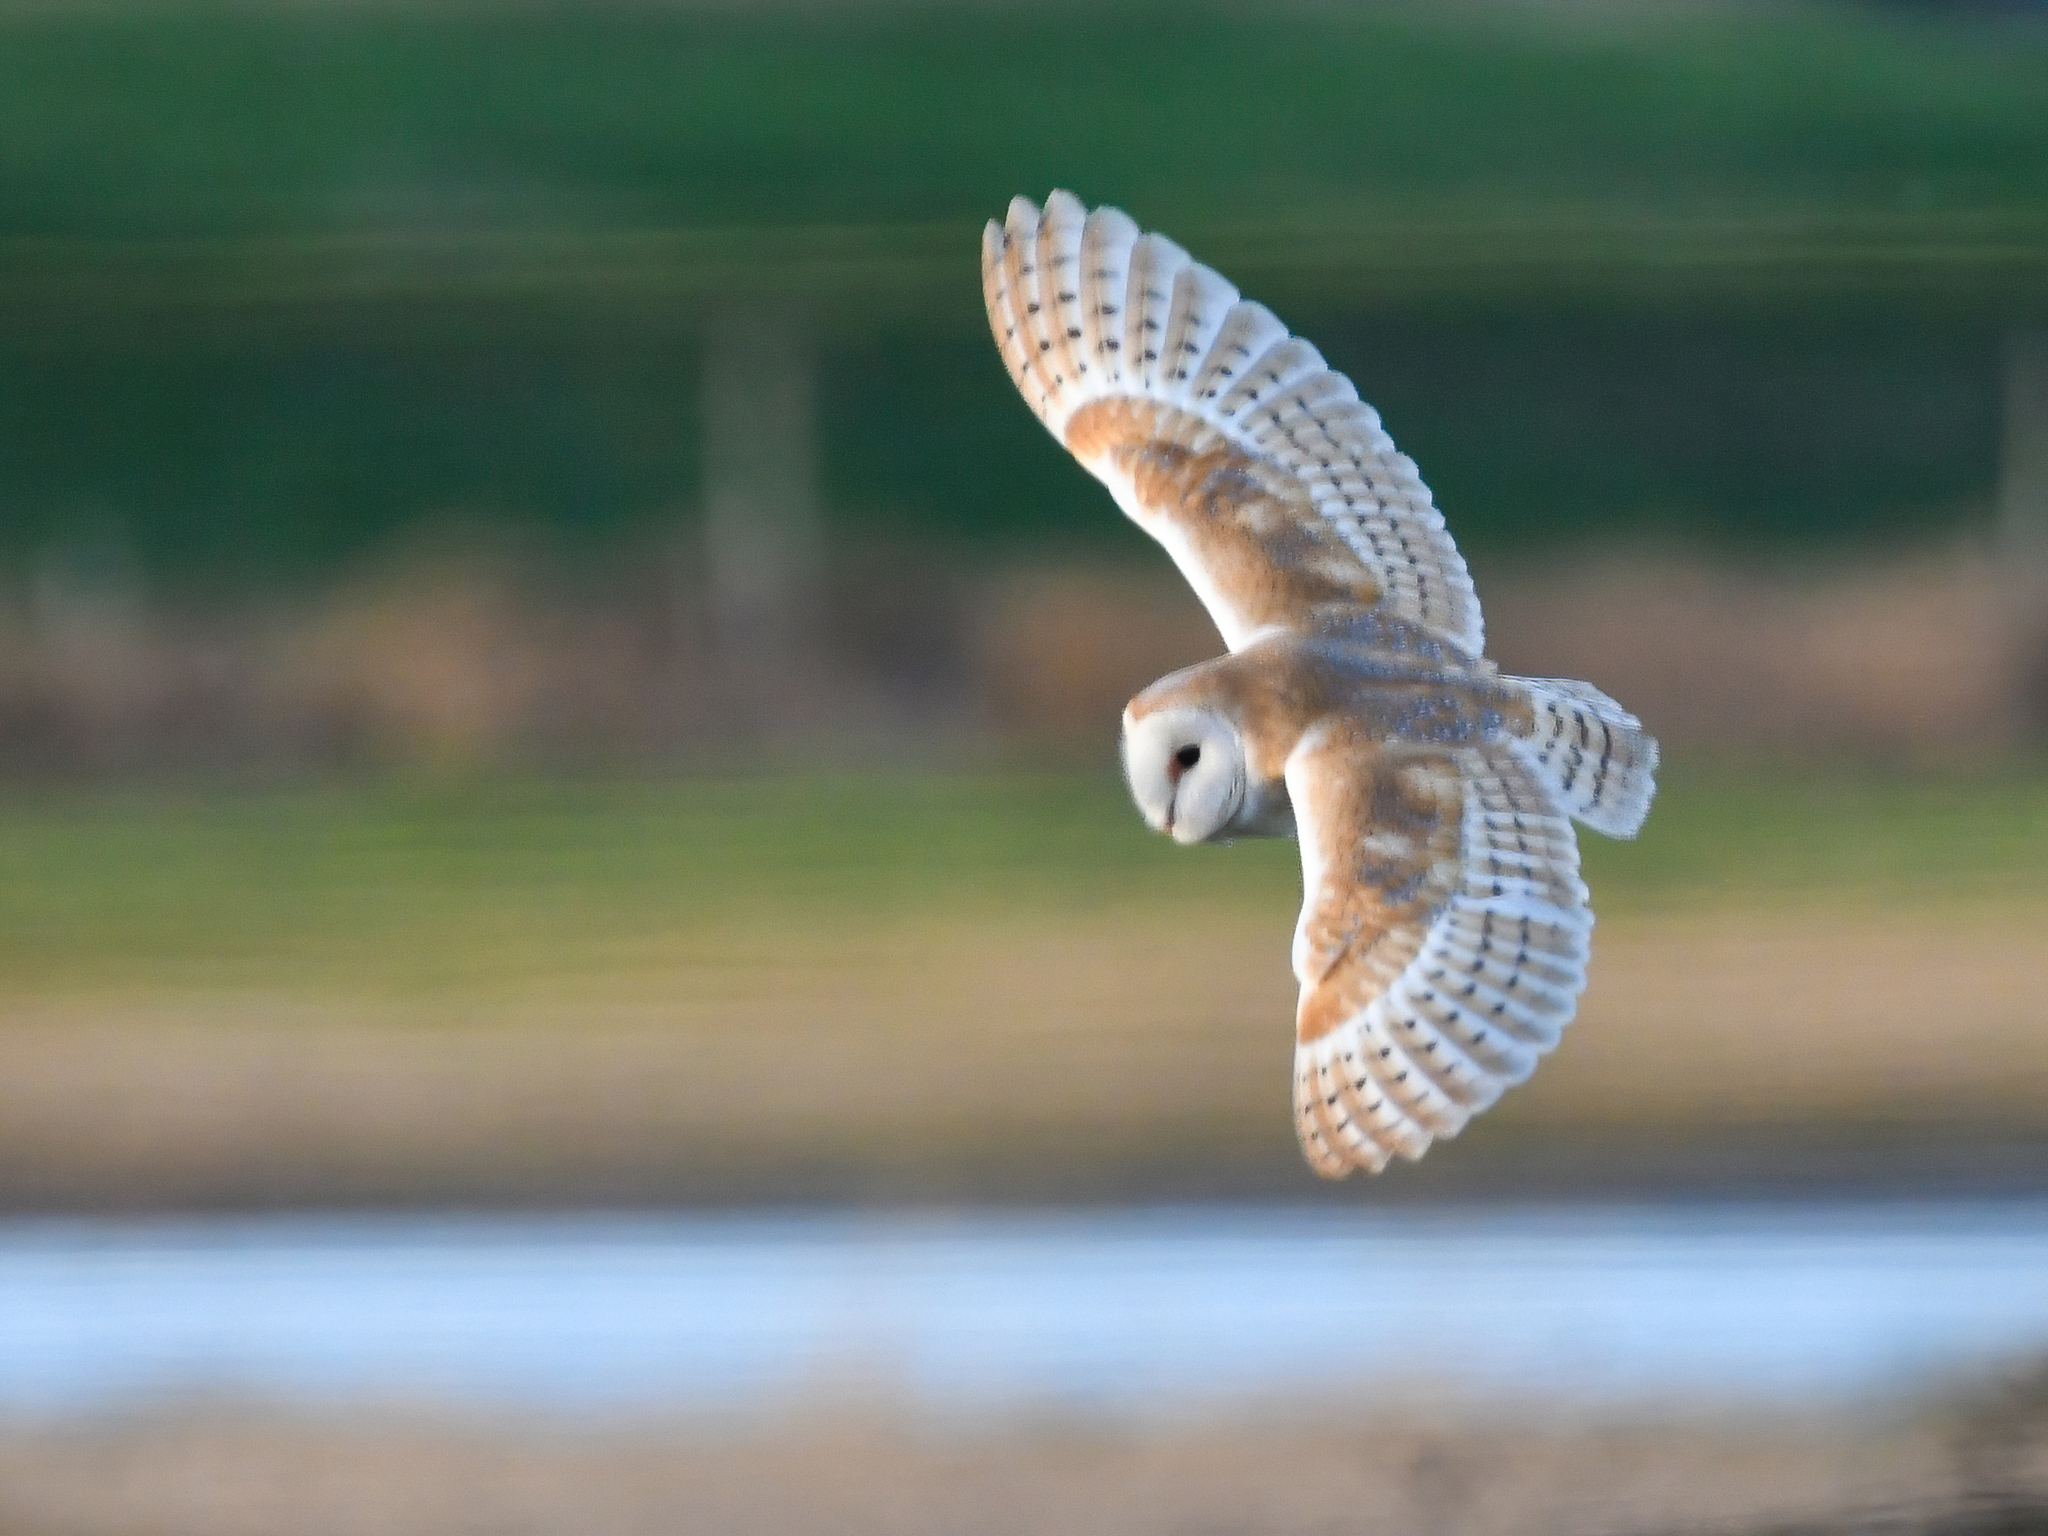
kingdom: Animalia
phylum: Chordata
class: Aves
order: Strigiformes
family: Tytonidae
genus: Tyto
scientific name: Tyto alba
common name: Barn owl
